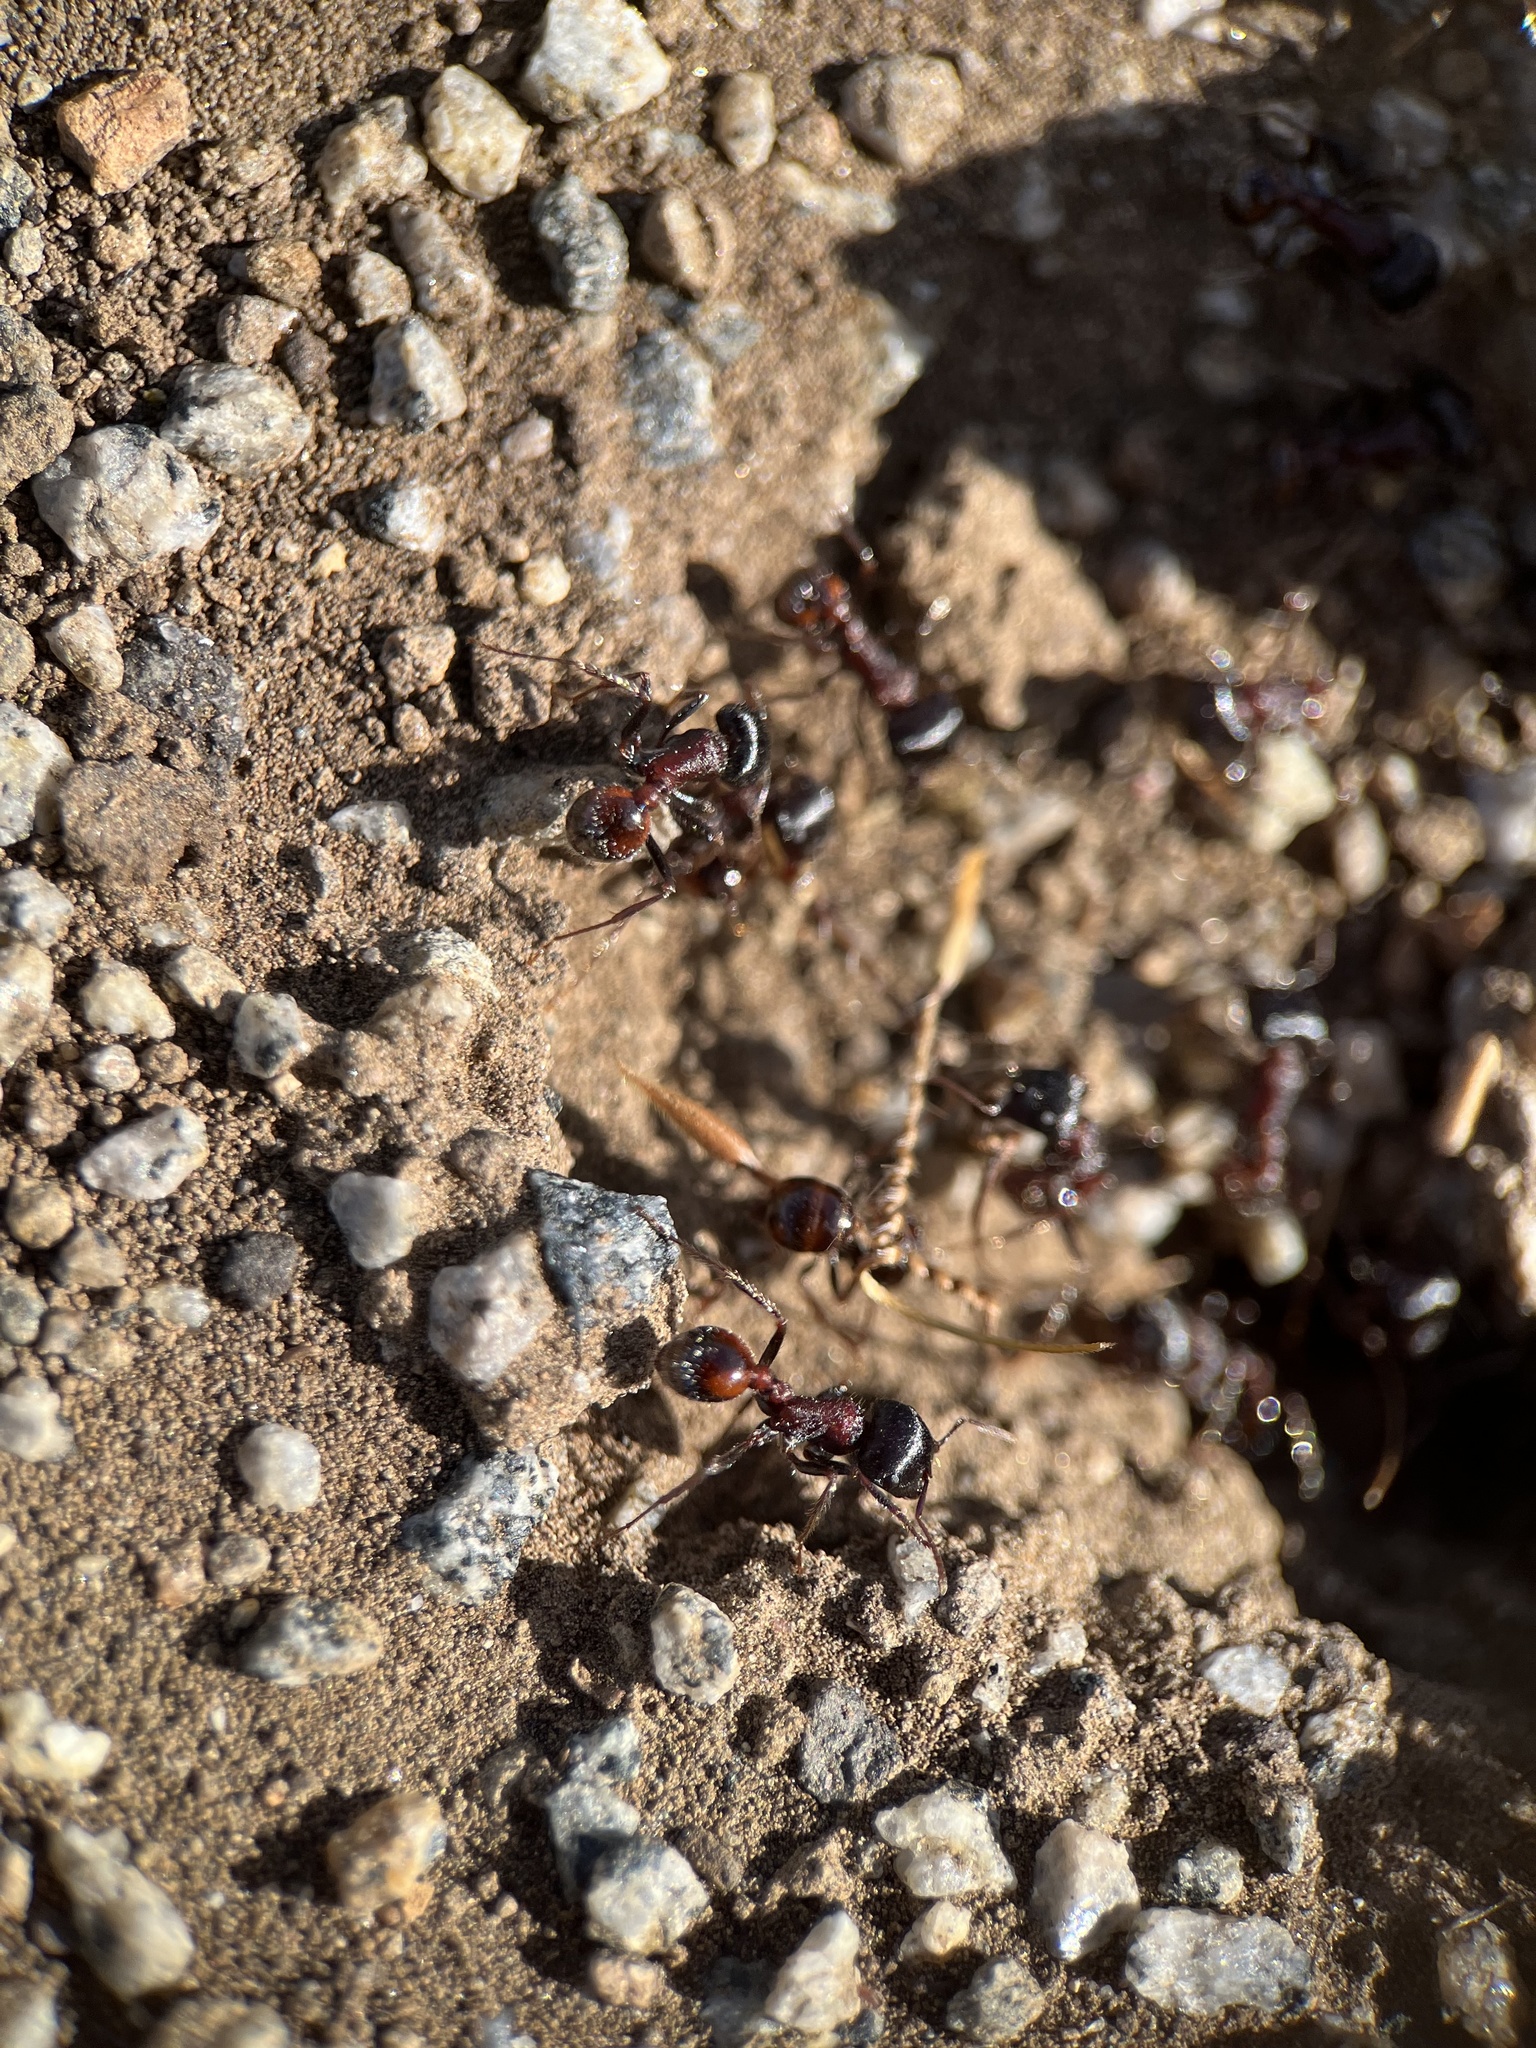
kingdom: Animalia
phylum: Arthropoda
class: Insecta
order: Hymenoptera
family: Formicidae
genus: Pogonomyrmex
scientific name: Pogonomyrmex rugosus
